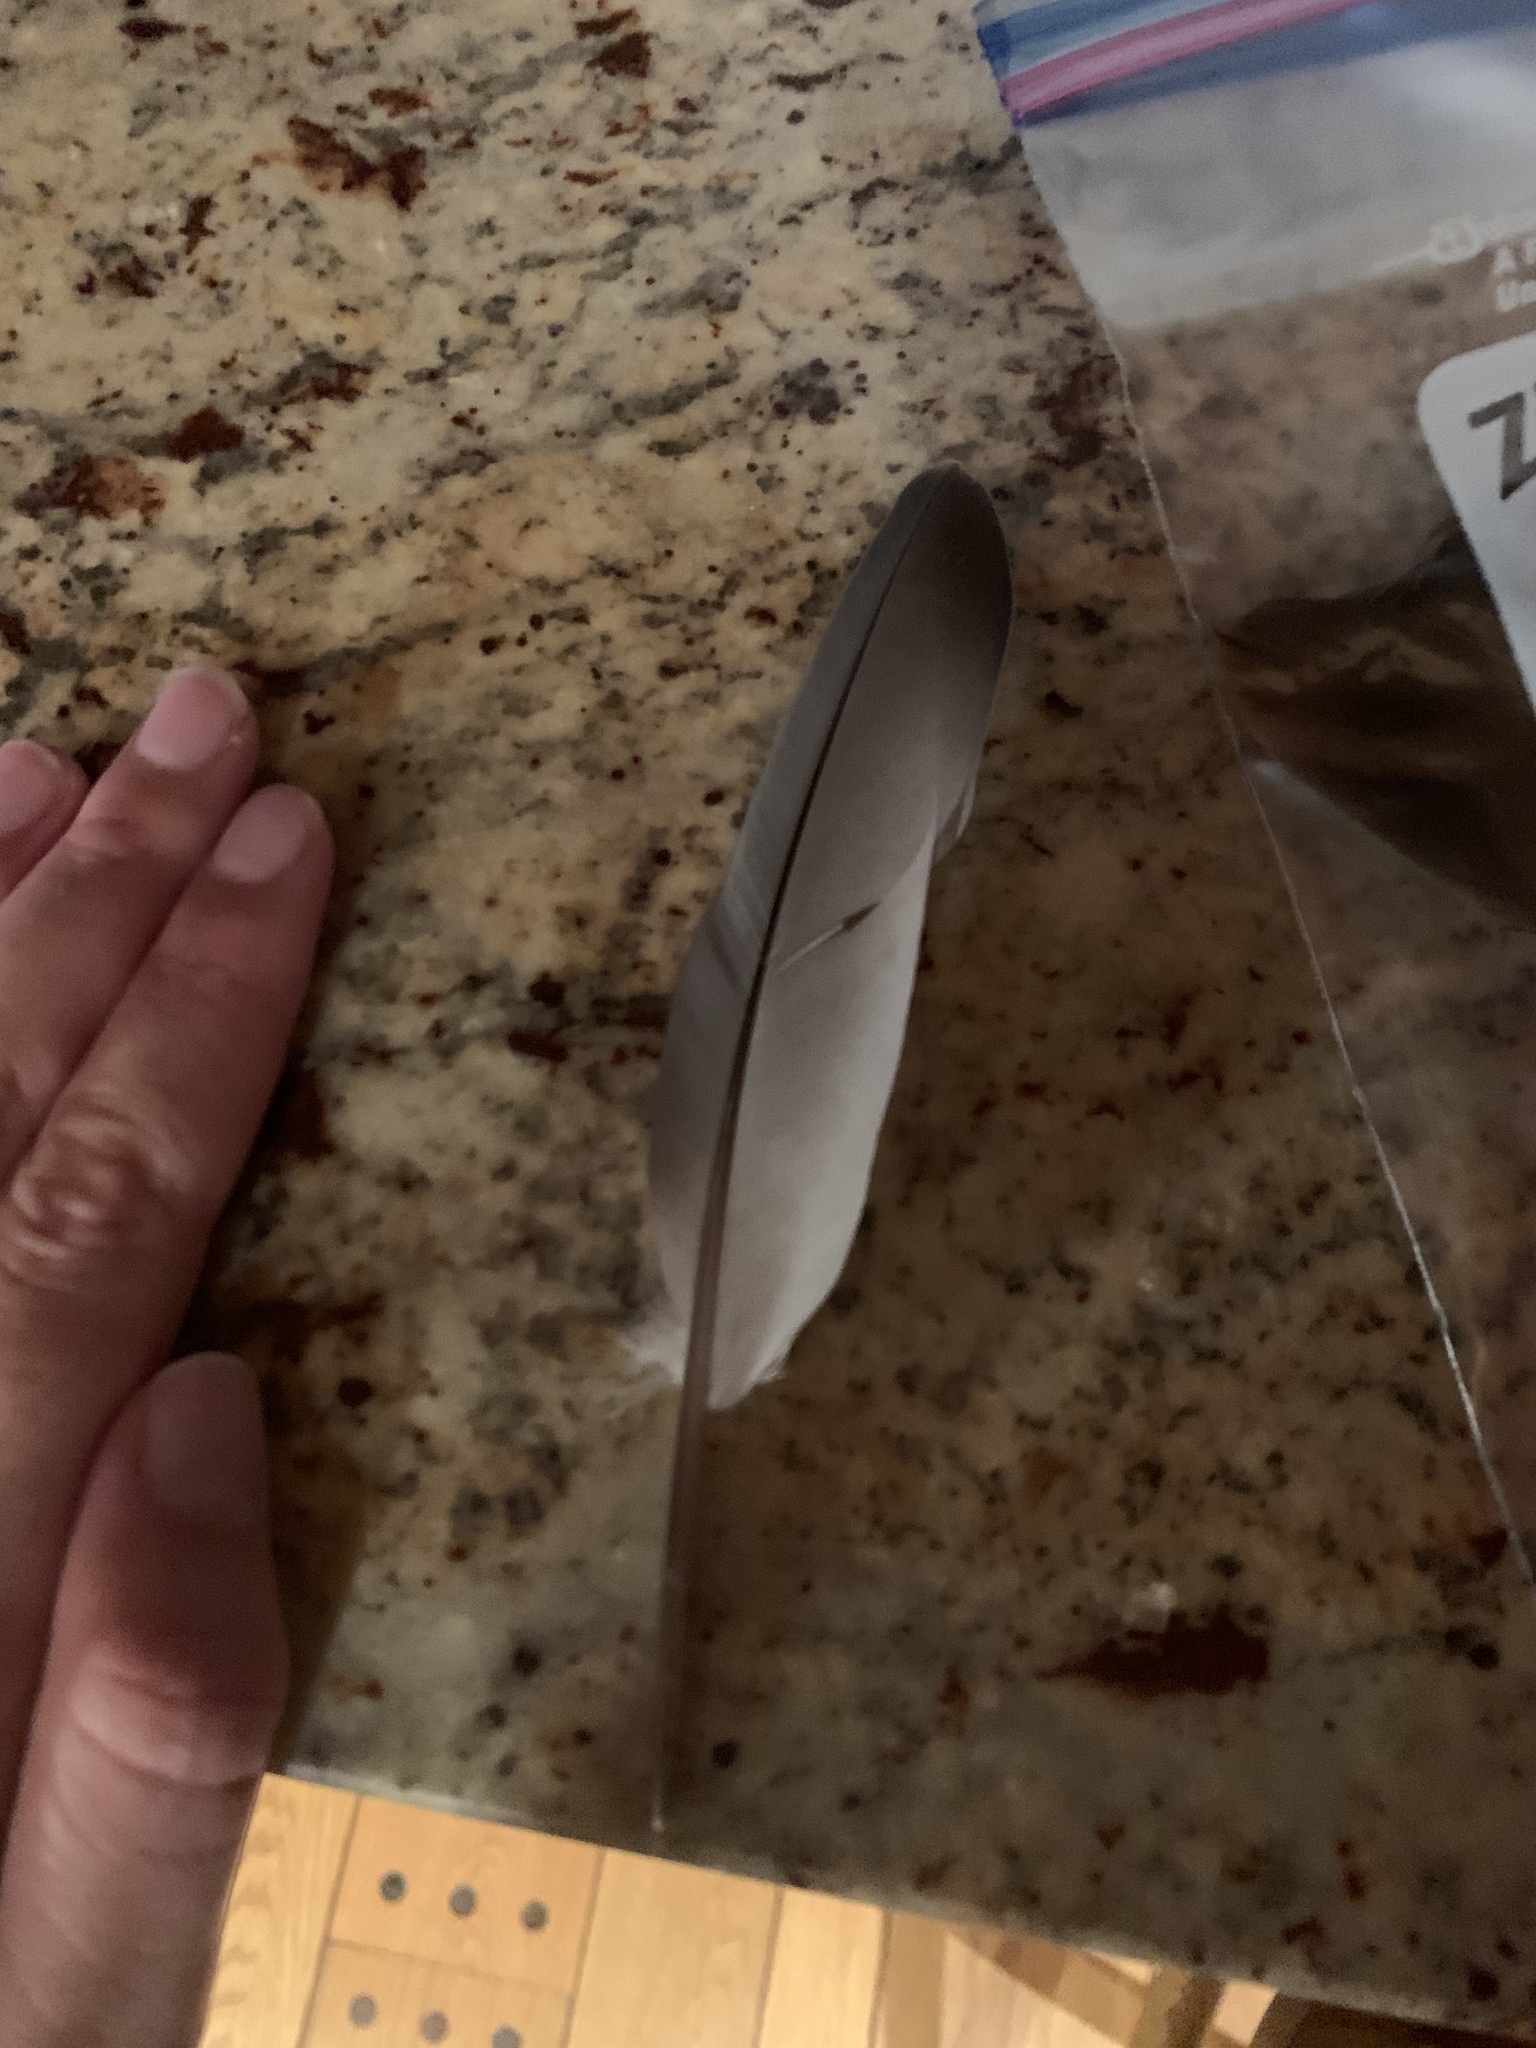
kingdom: Animalia
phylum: Chordata
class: Aves
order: Columbiformes
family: Columbidae
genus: Columba
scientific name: Columba livia
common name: Rock pigeon
